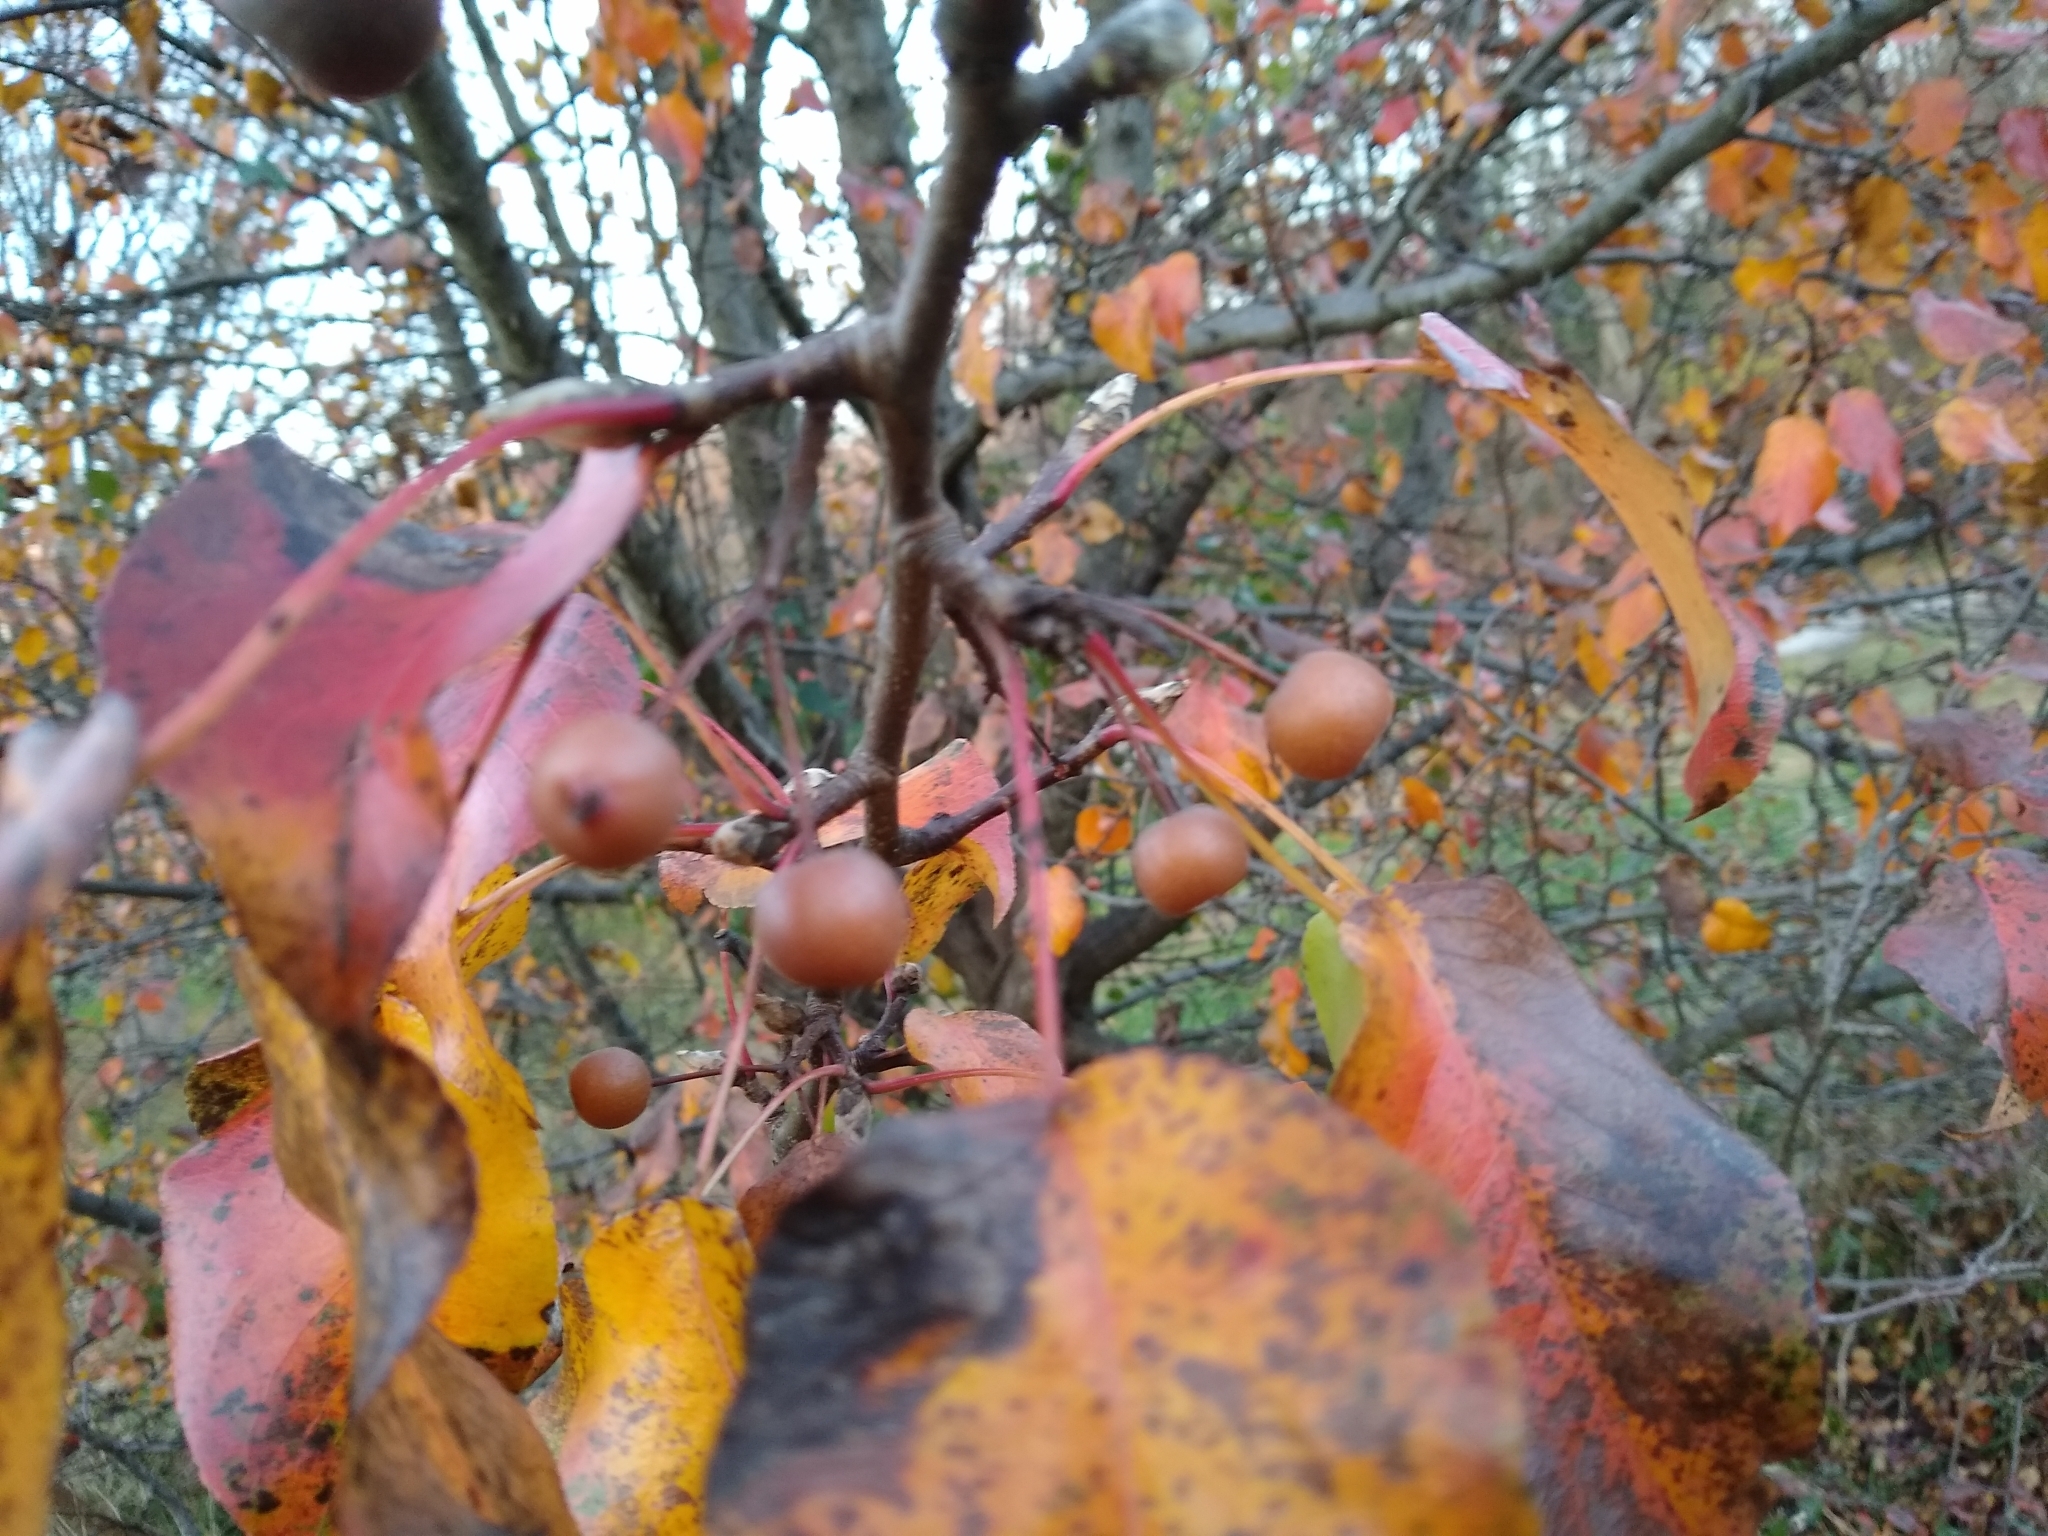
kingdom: Plantae
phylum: Tracheophyta
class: Magnoliopsida
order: Rosales
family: Rosaceae
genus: Pyrus
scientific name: Pyrus calleryana
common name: Callery pear
